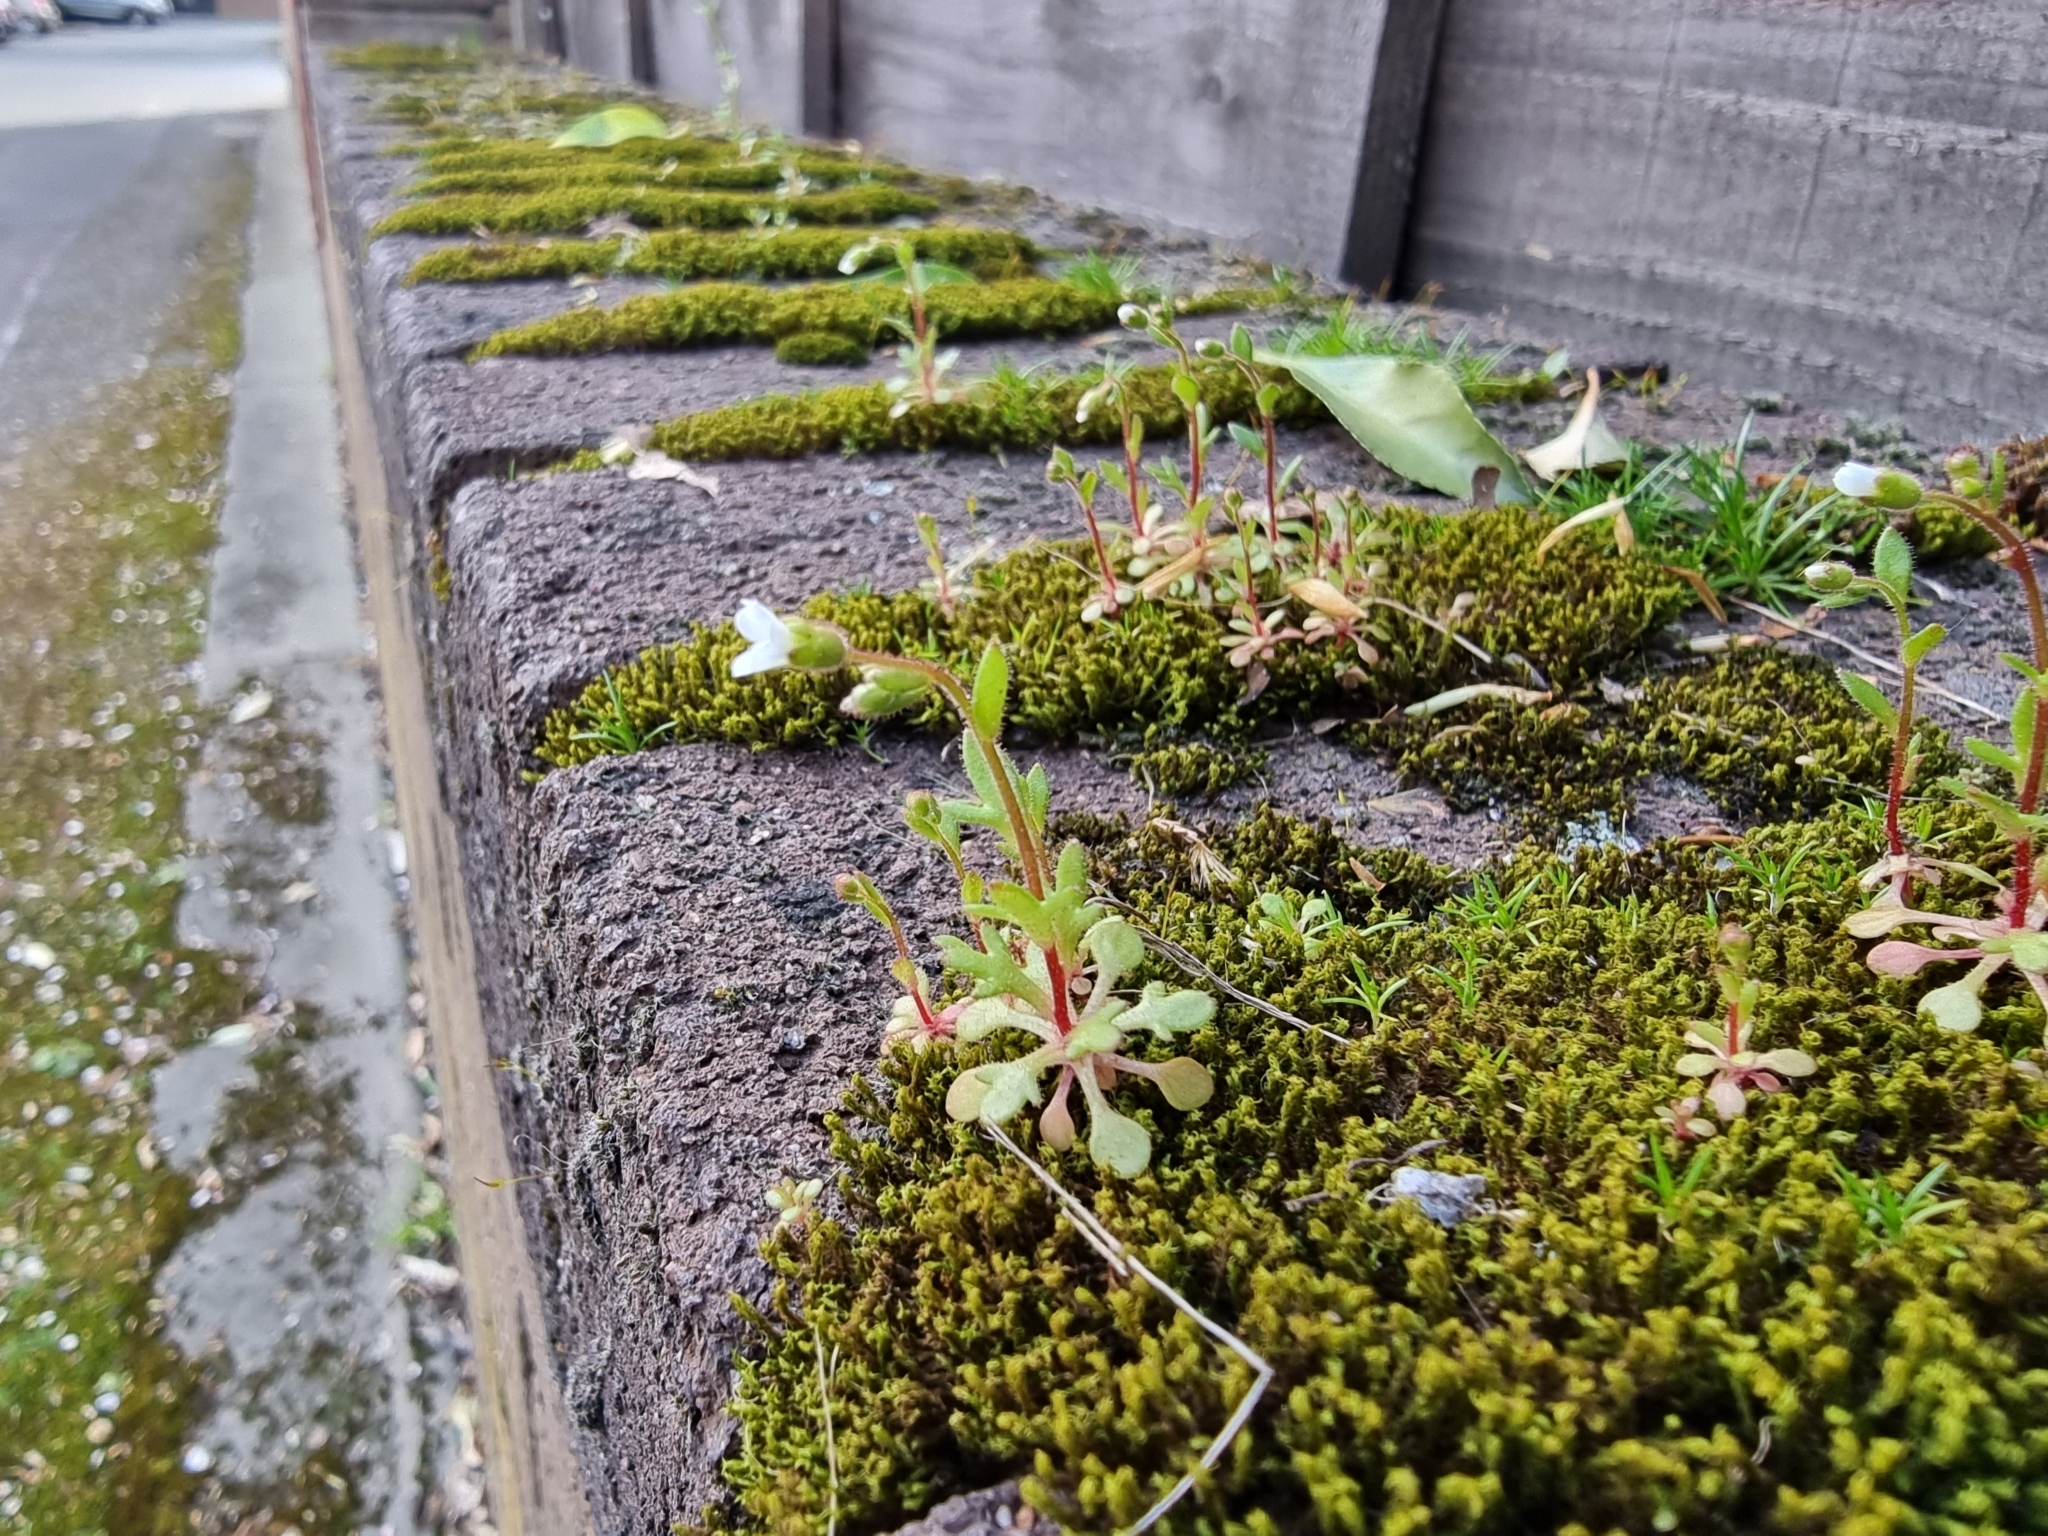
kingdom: Plantae
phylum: Tracheophyta
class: Magnoliopsida
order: Saxifragales
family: Saxifragaceae
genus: Saxifraga
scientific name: Saxifraga tridactylites
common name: Rue-leaved saxifrage
